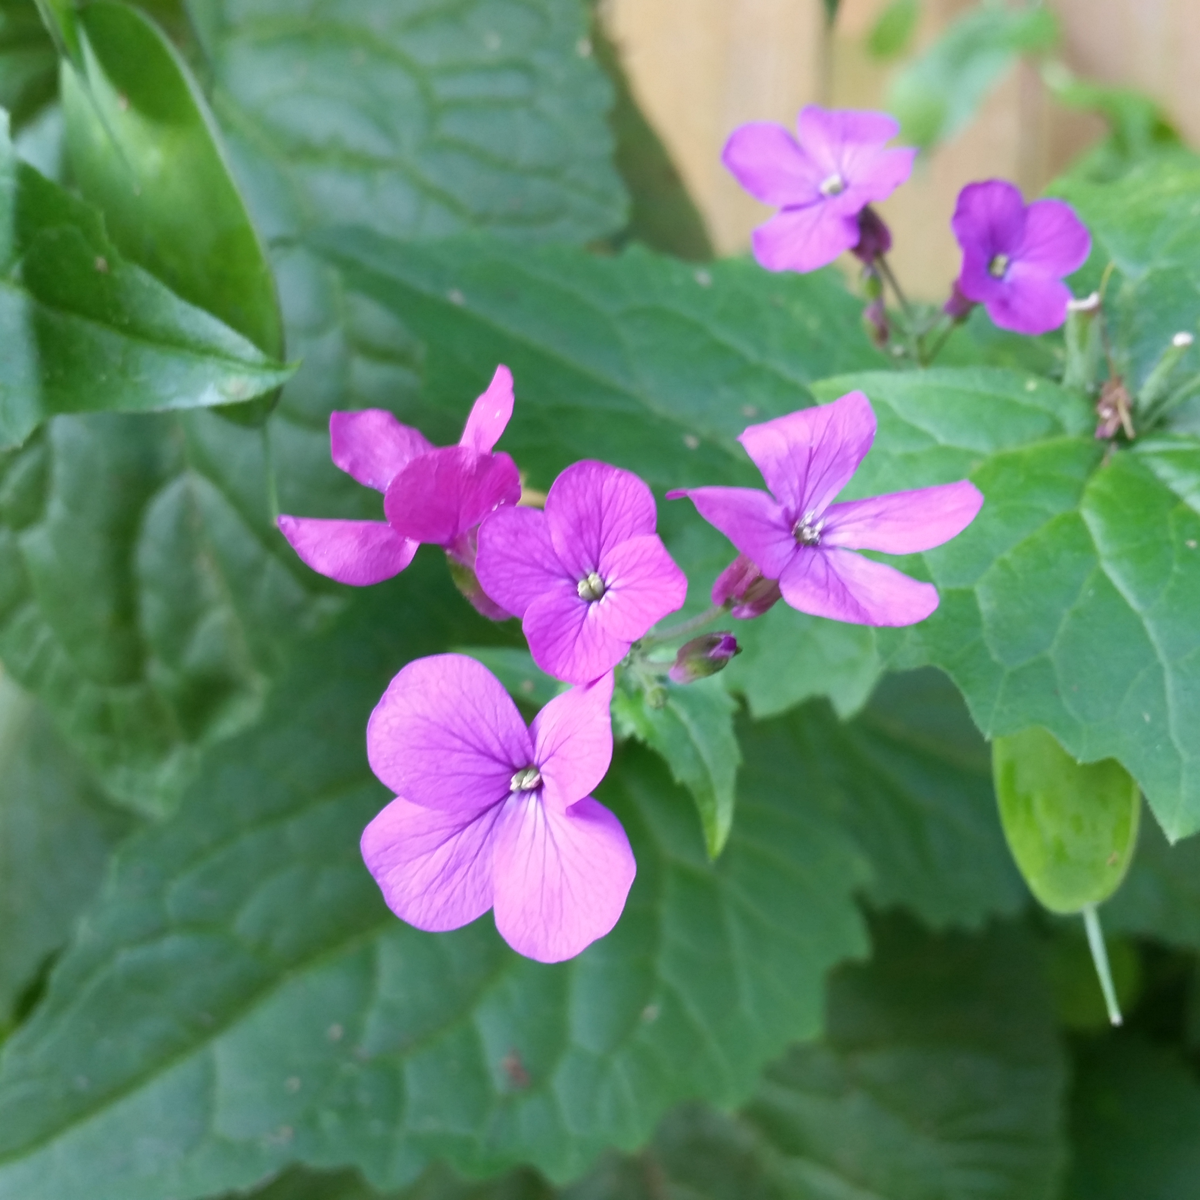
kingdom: Plantae
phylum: Tracheophyta
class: Magnoliopsida
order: Brassicales
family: Brassicaceae
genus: Lunaria
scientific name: Lunaria annua
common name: Honesty
